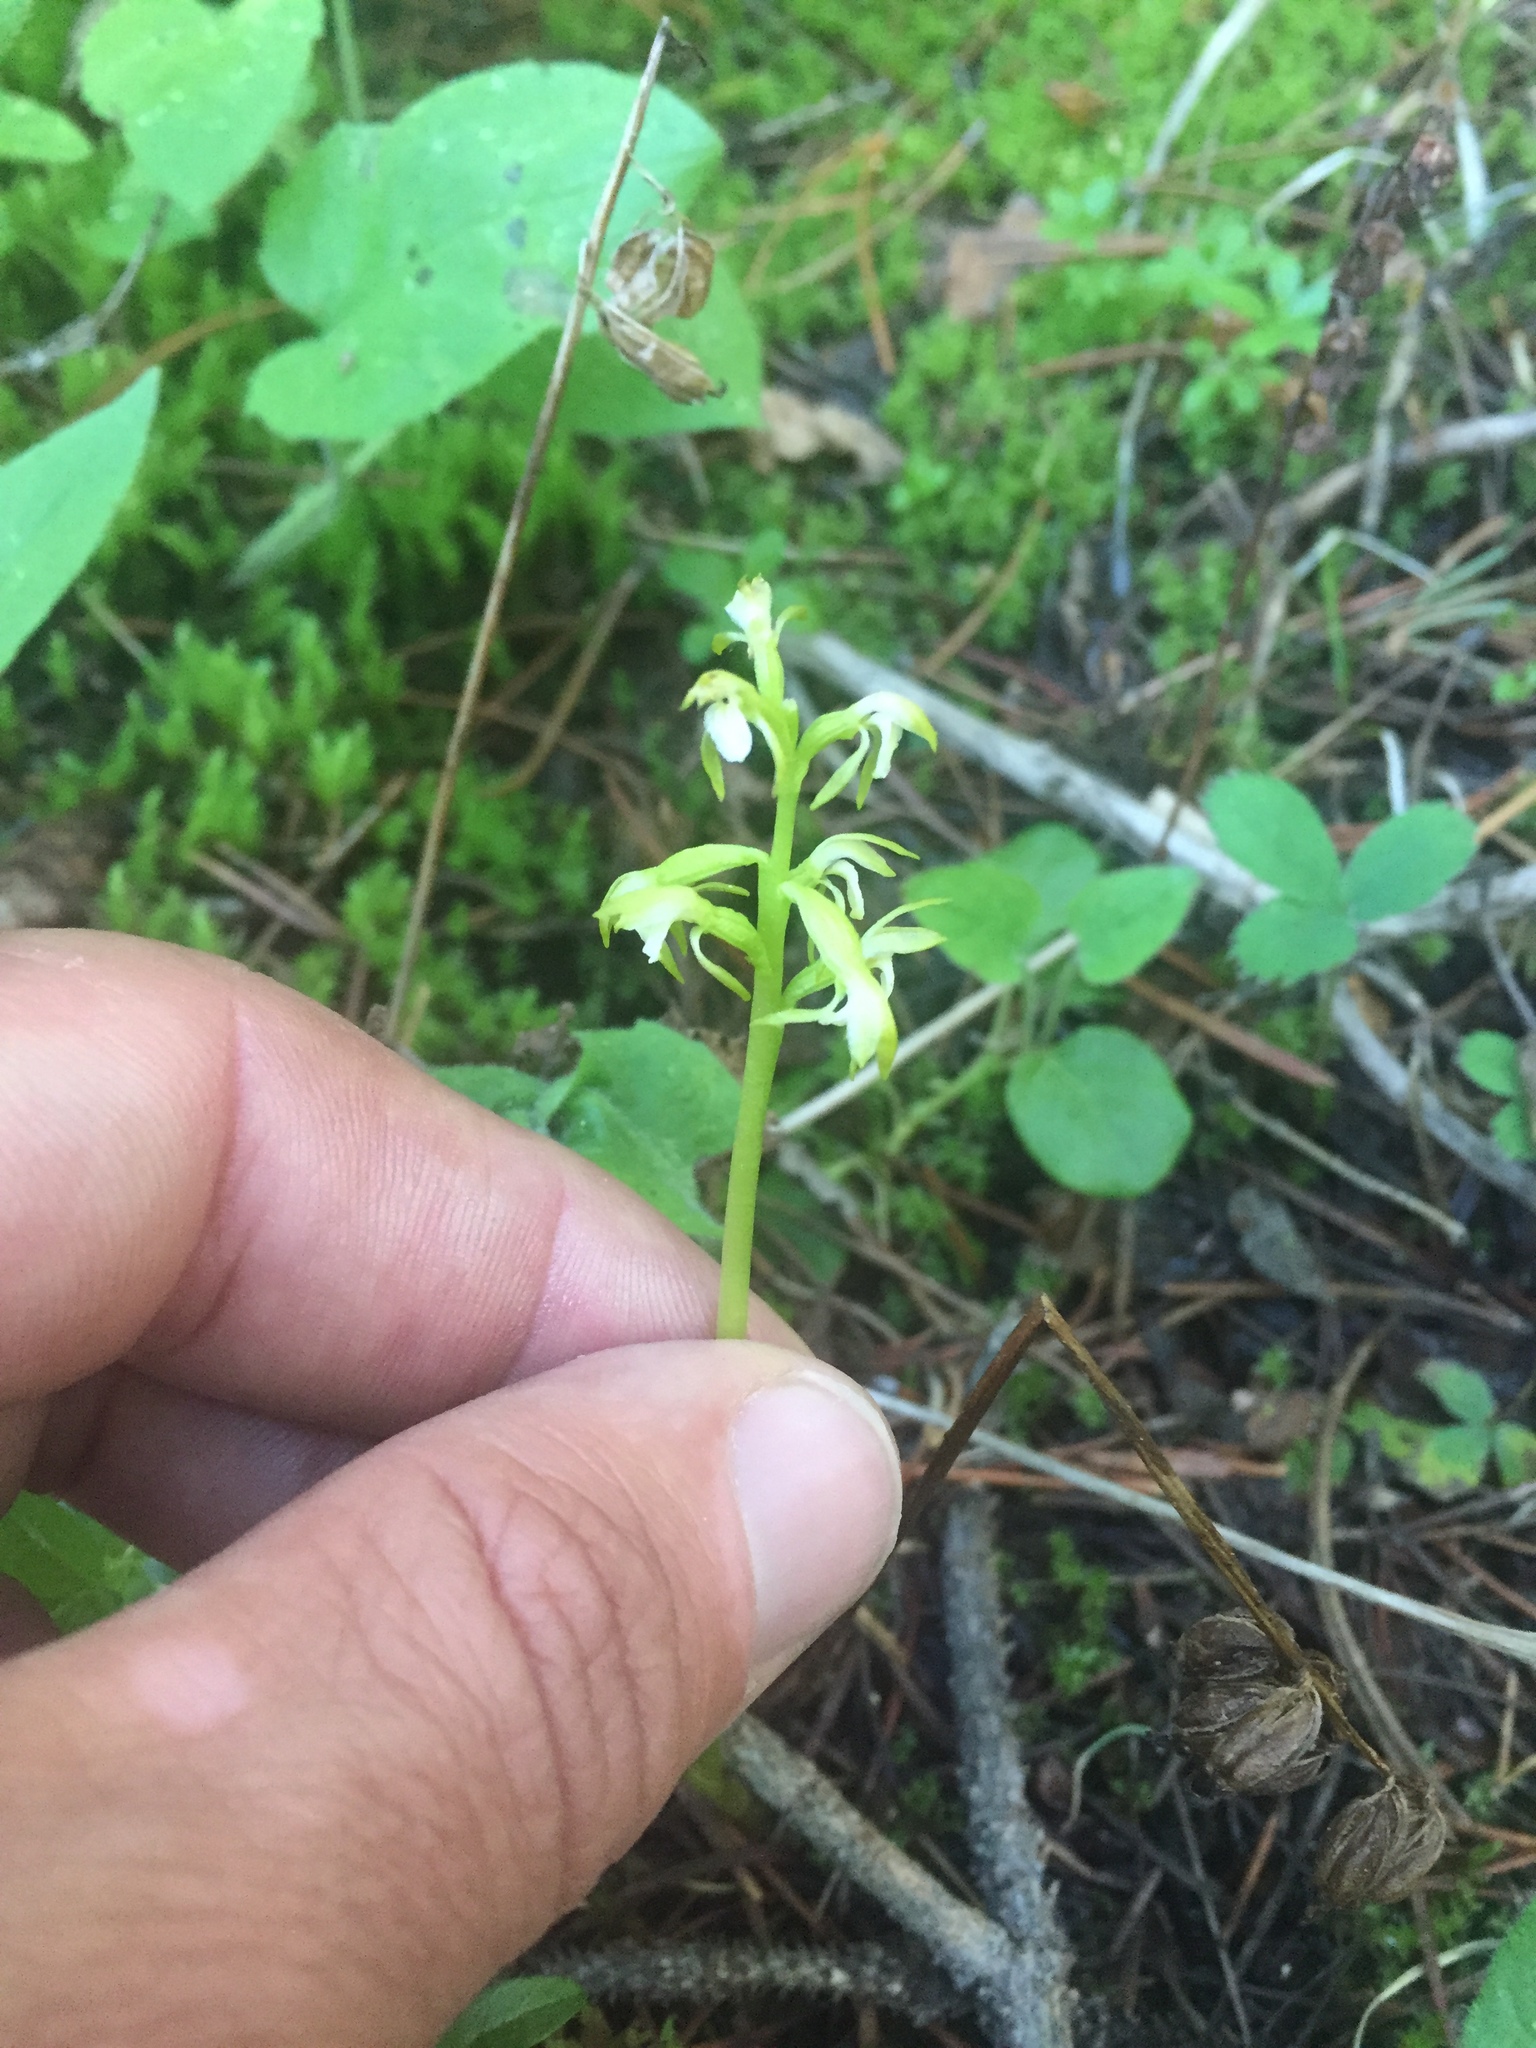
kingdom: Plantae
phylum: Tracheophyta
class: Liliopsida
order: Asparagales
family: Orchidaceae
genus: Corallorhiza
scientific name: Corallorhiza trifida
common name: Yellow coralroot
